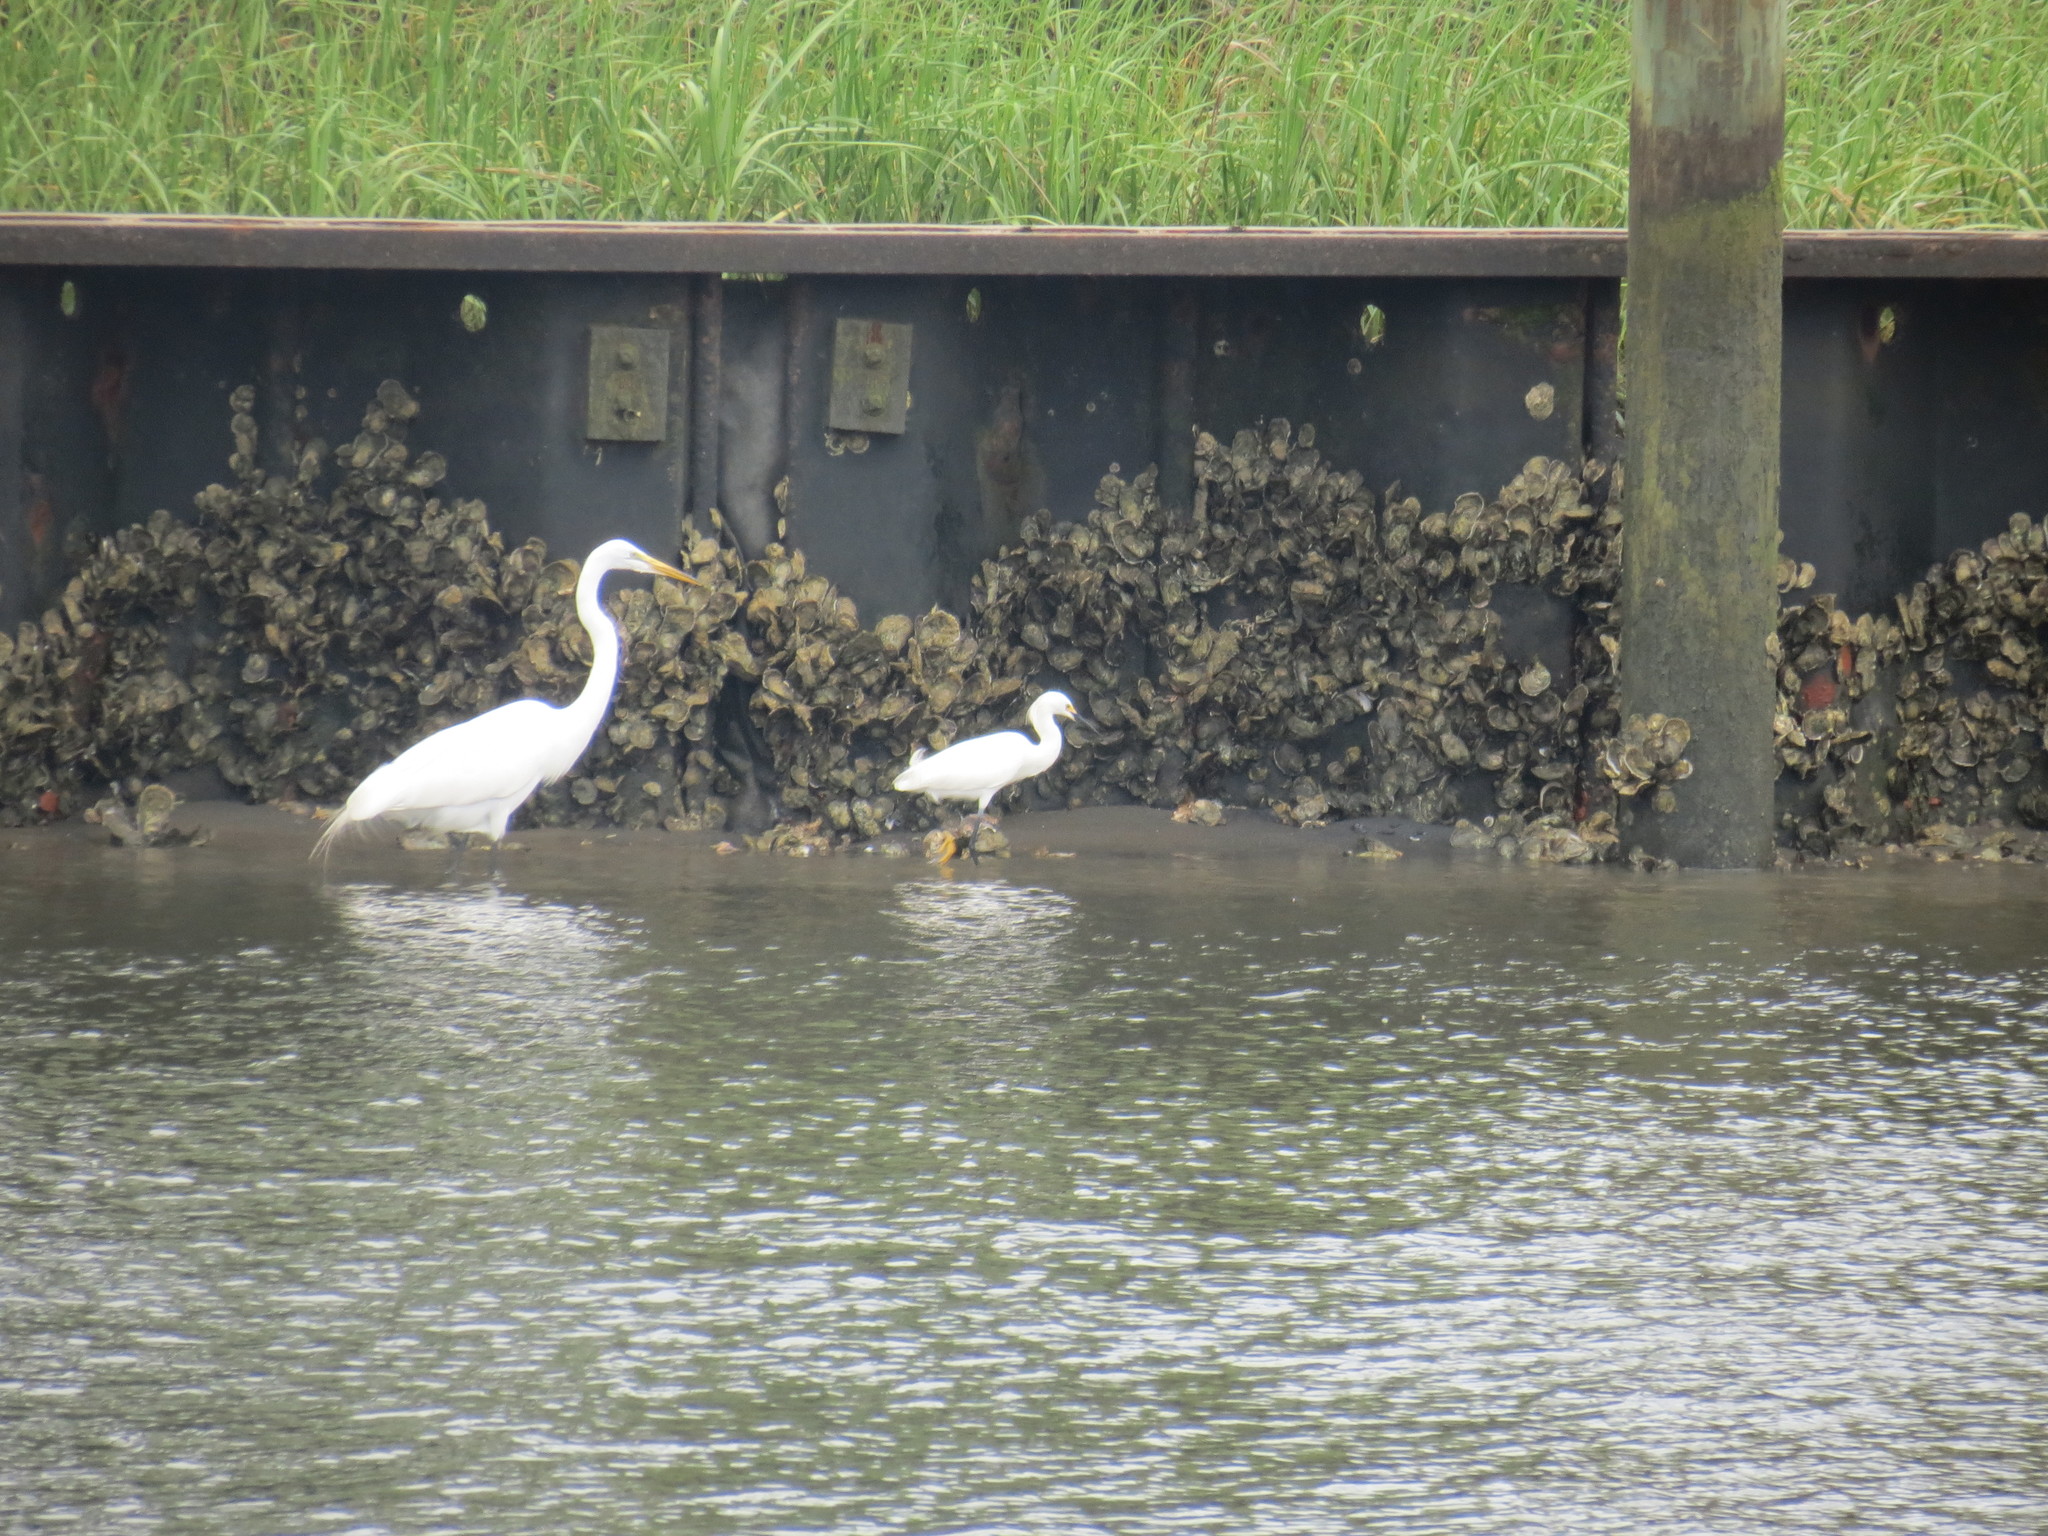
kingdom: Animalia
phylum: Chordata
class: Aves
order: Pelecaniformes
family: Ardeidae
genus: Ardea
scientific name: Ardea alba
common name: Great egret
